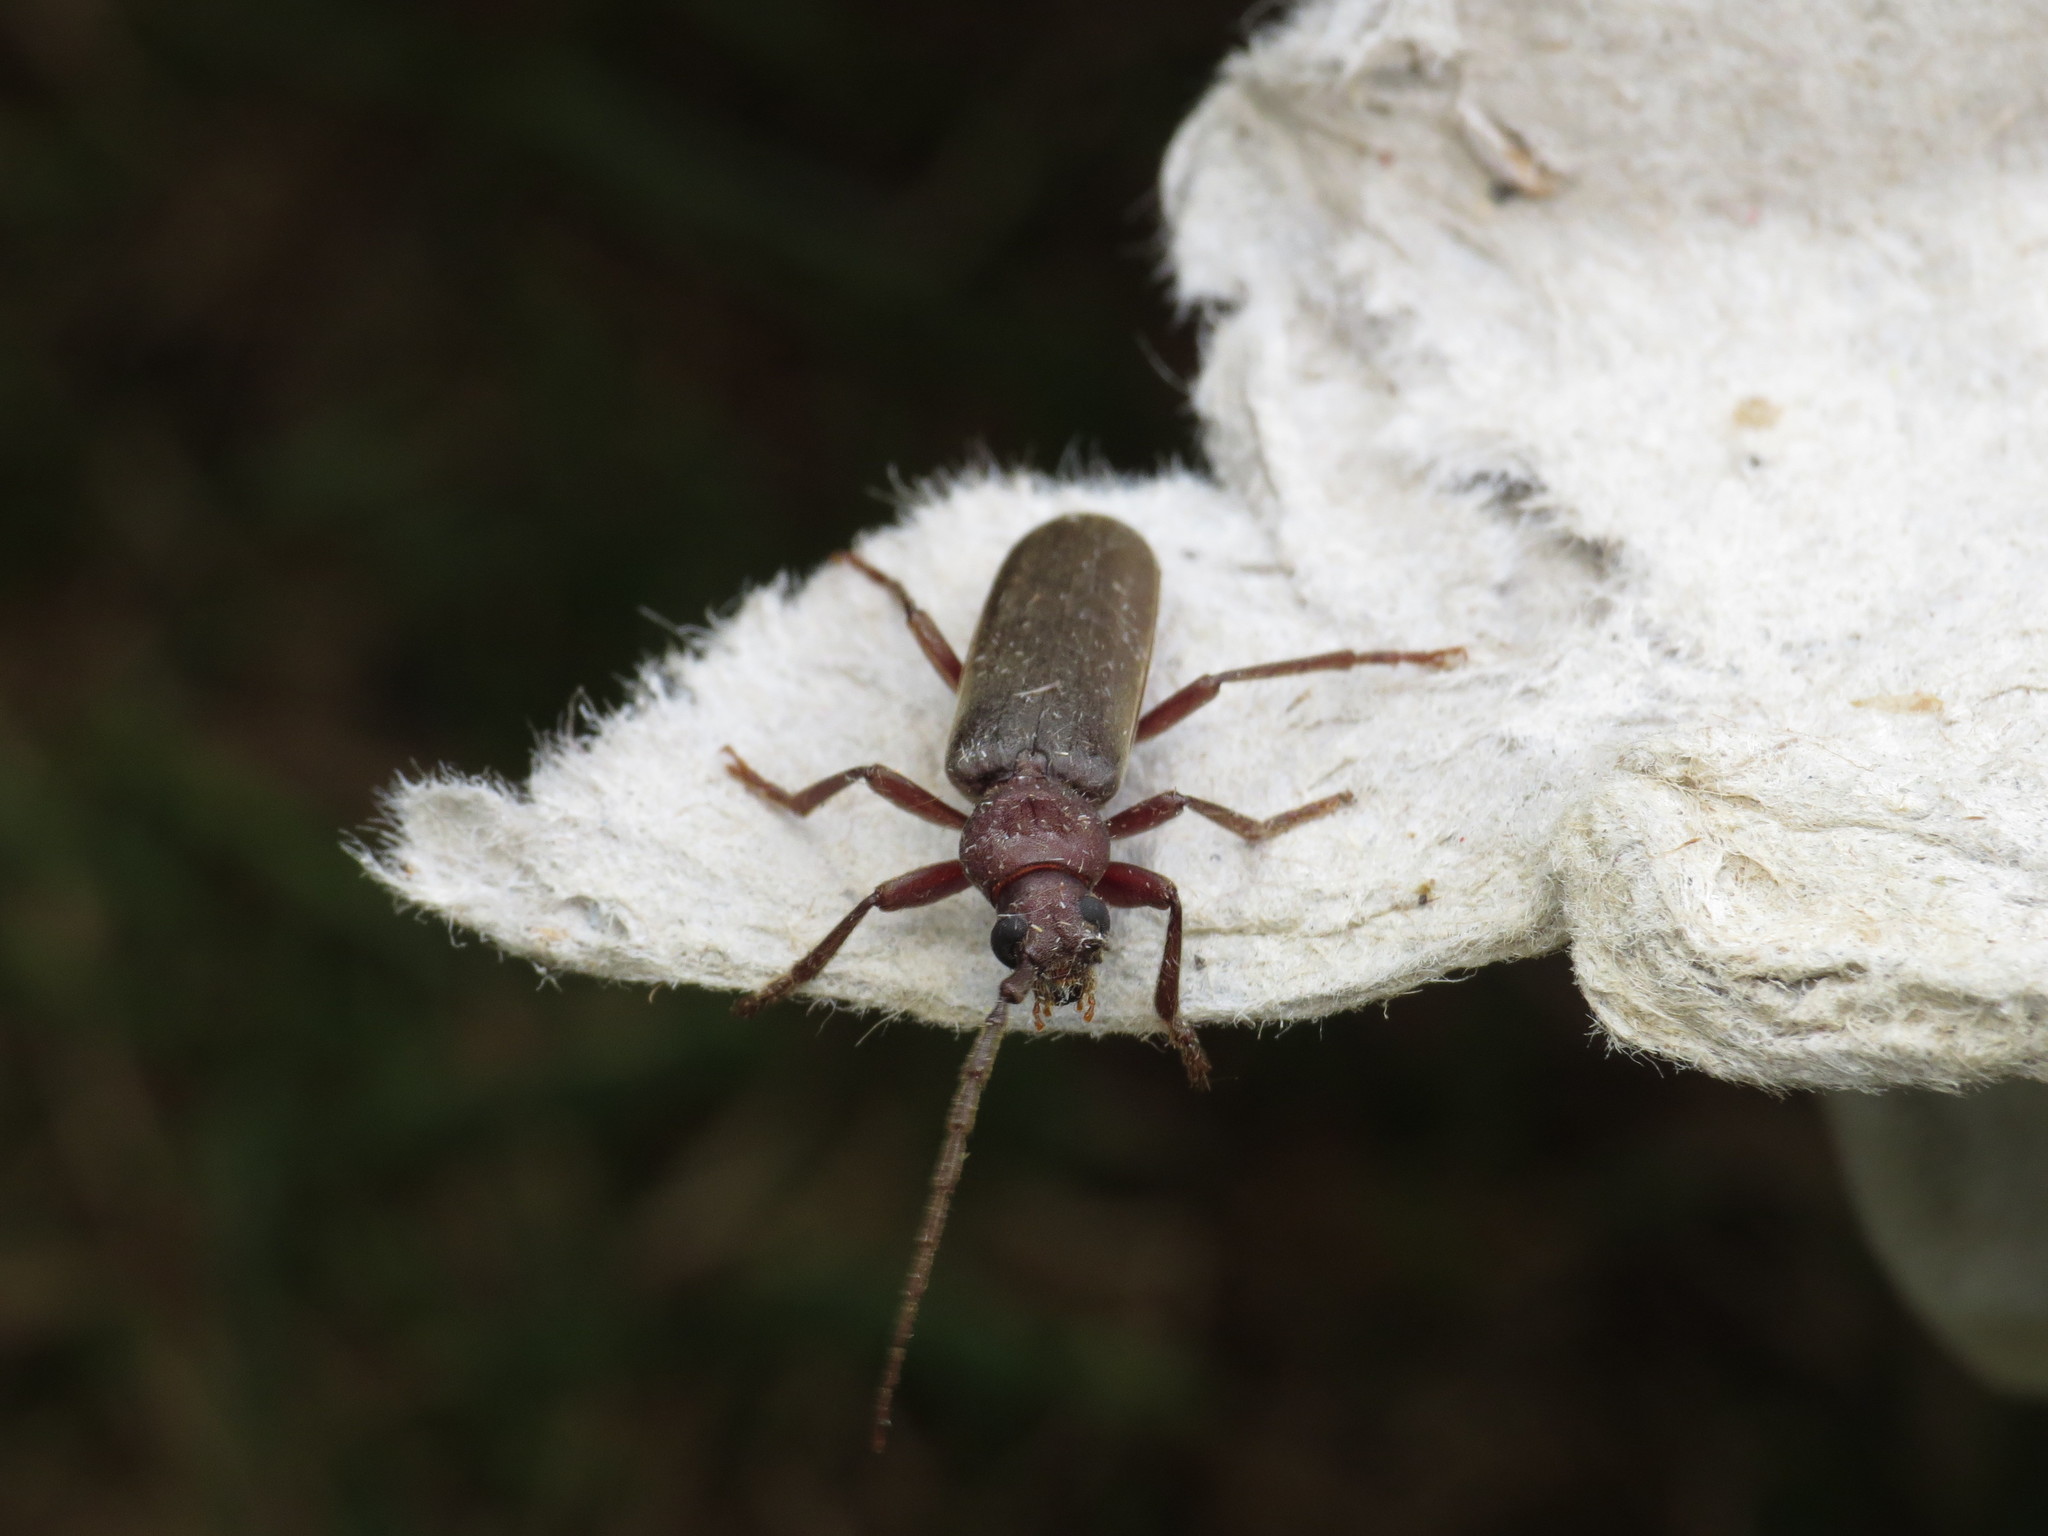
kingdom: Animalia
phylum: Arthropoda
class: Insecta
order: Coleoptera
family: Cerambycidae
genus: Arhopalus
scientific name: Arhopalus rusticus
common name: Rust pine borer
